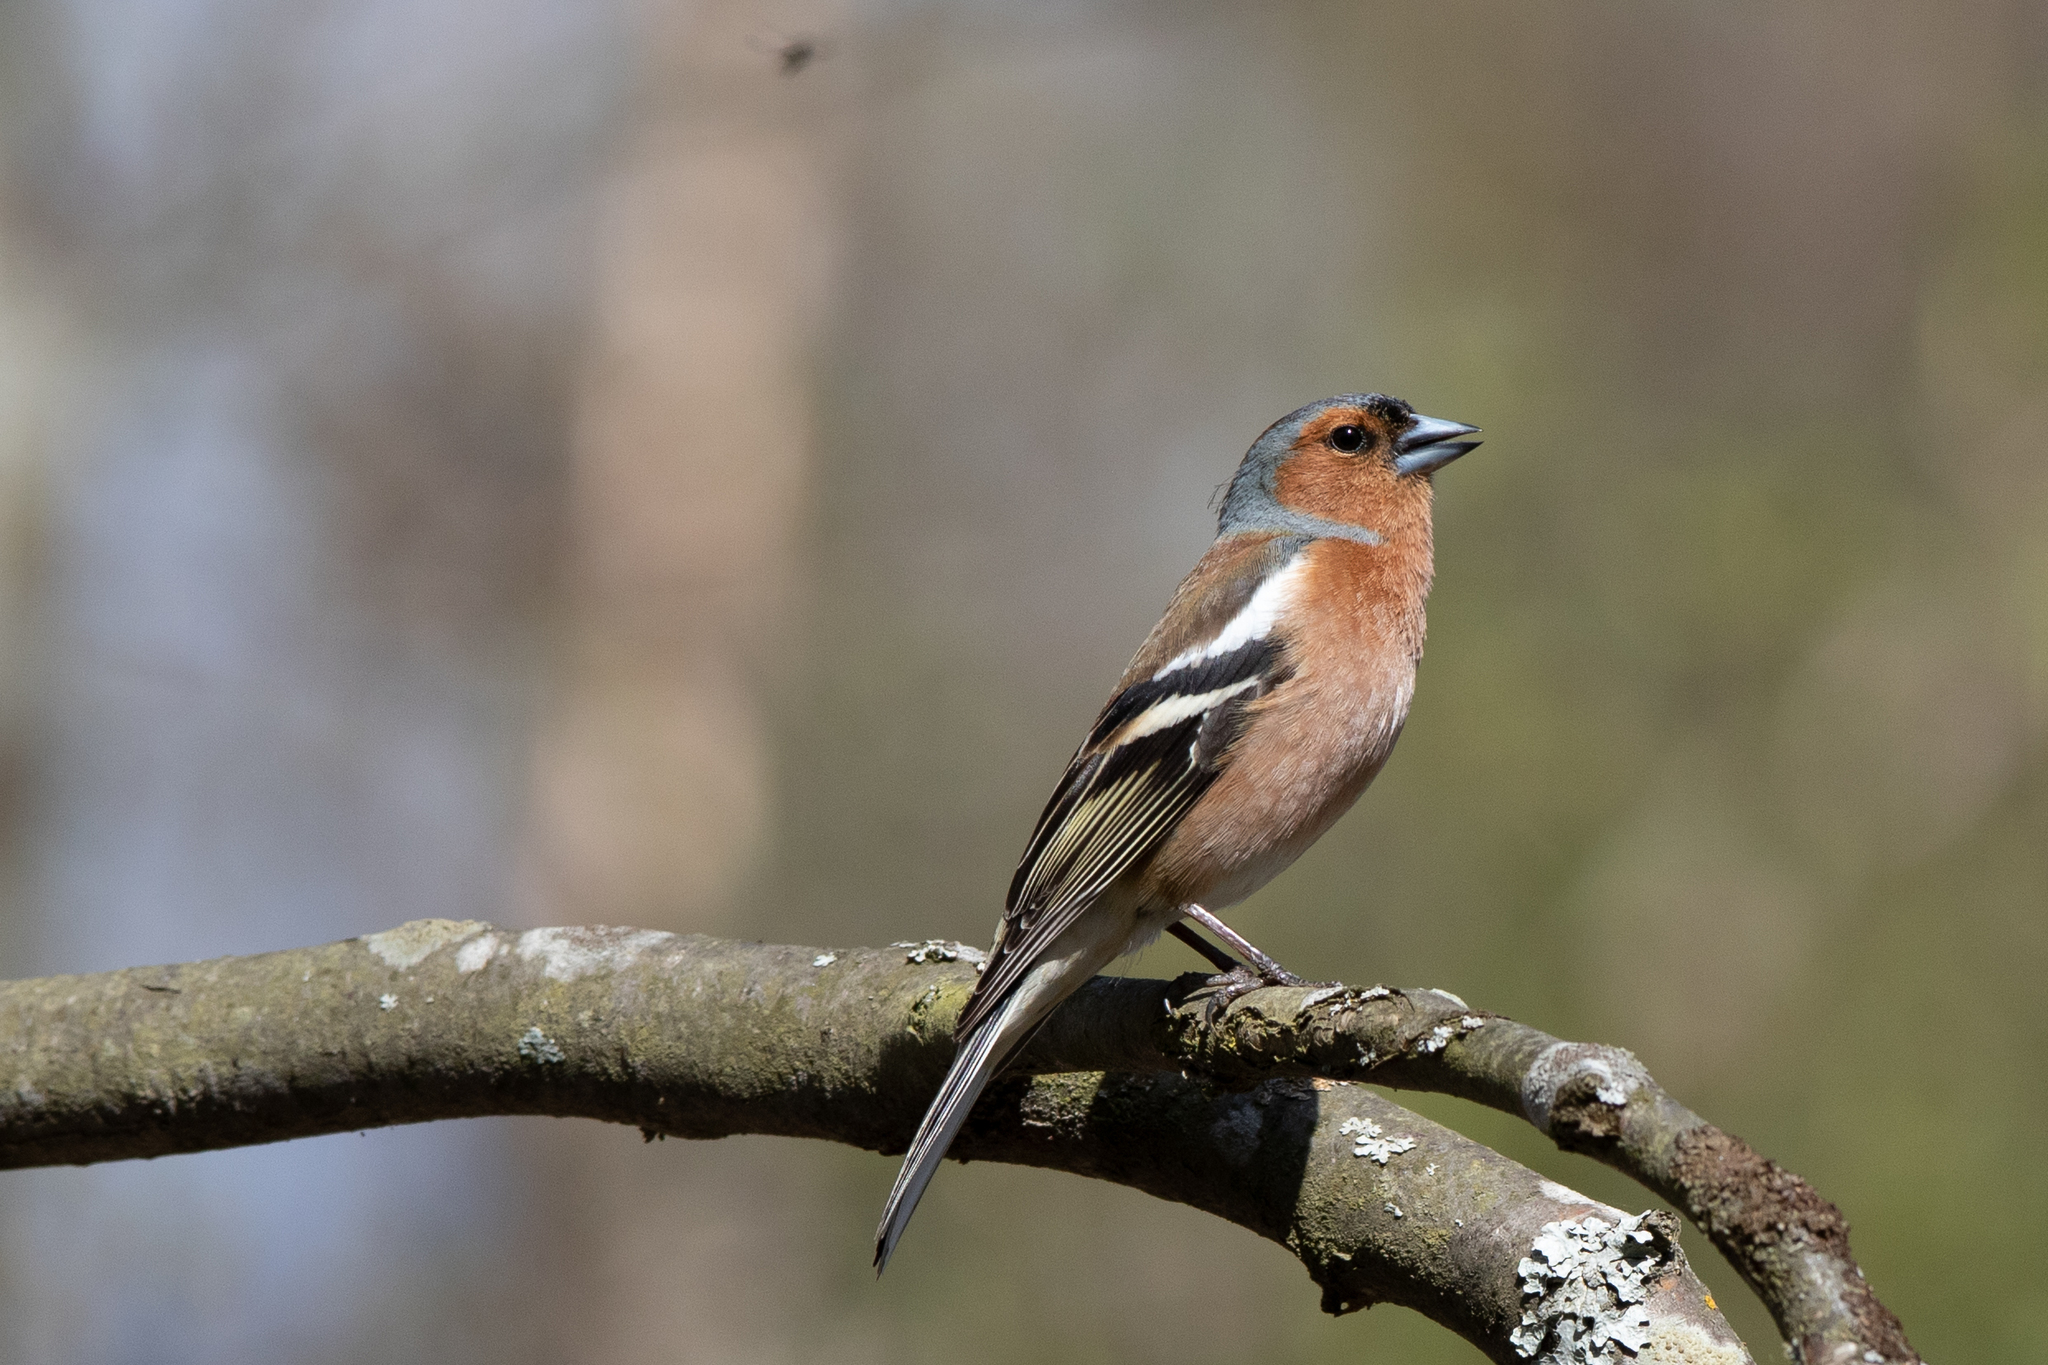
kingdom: Animalia
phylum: Chordata
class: Aves
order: Passeriformes
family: Fringillidae
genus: Fringilla
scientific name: Fringilla coelebs
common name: Common chaffinch
